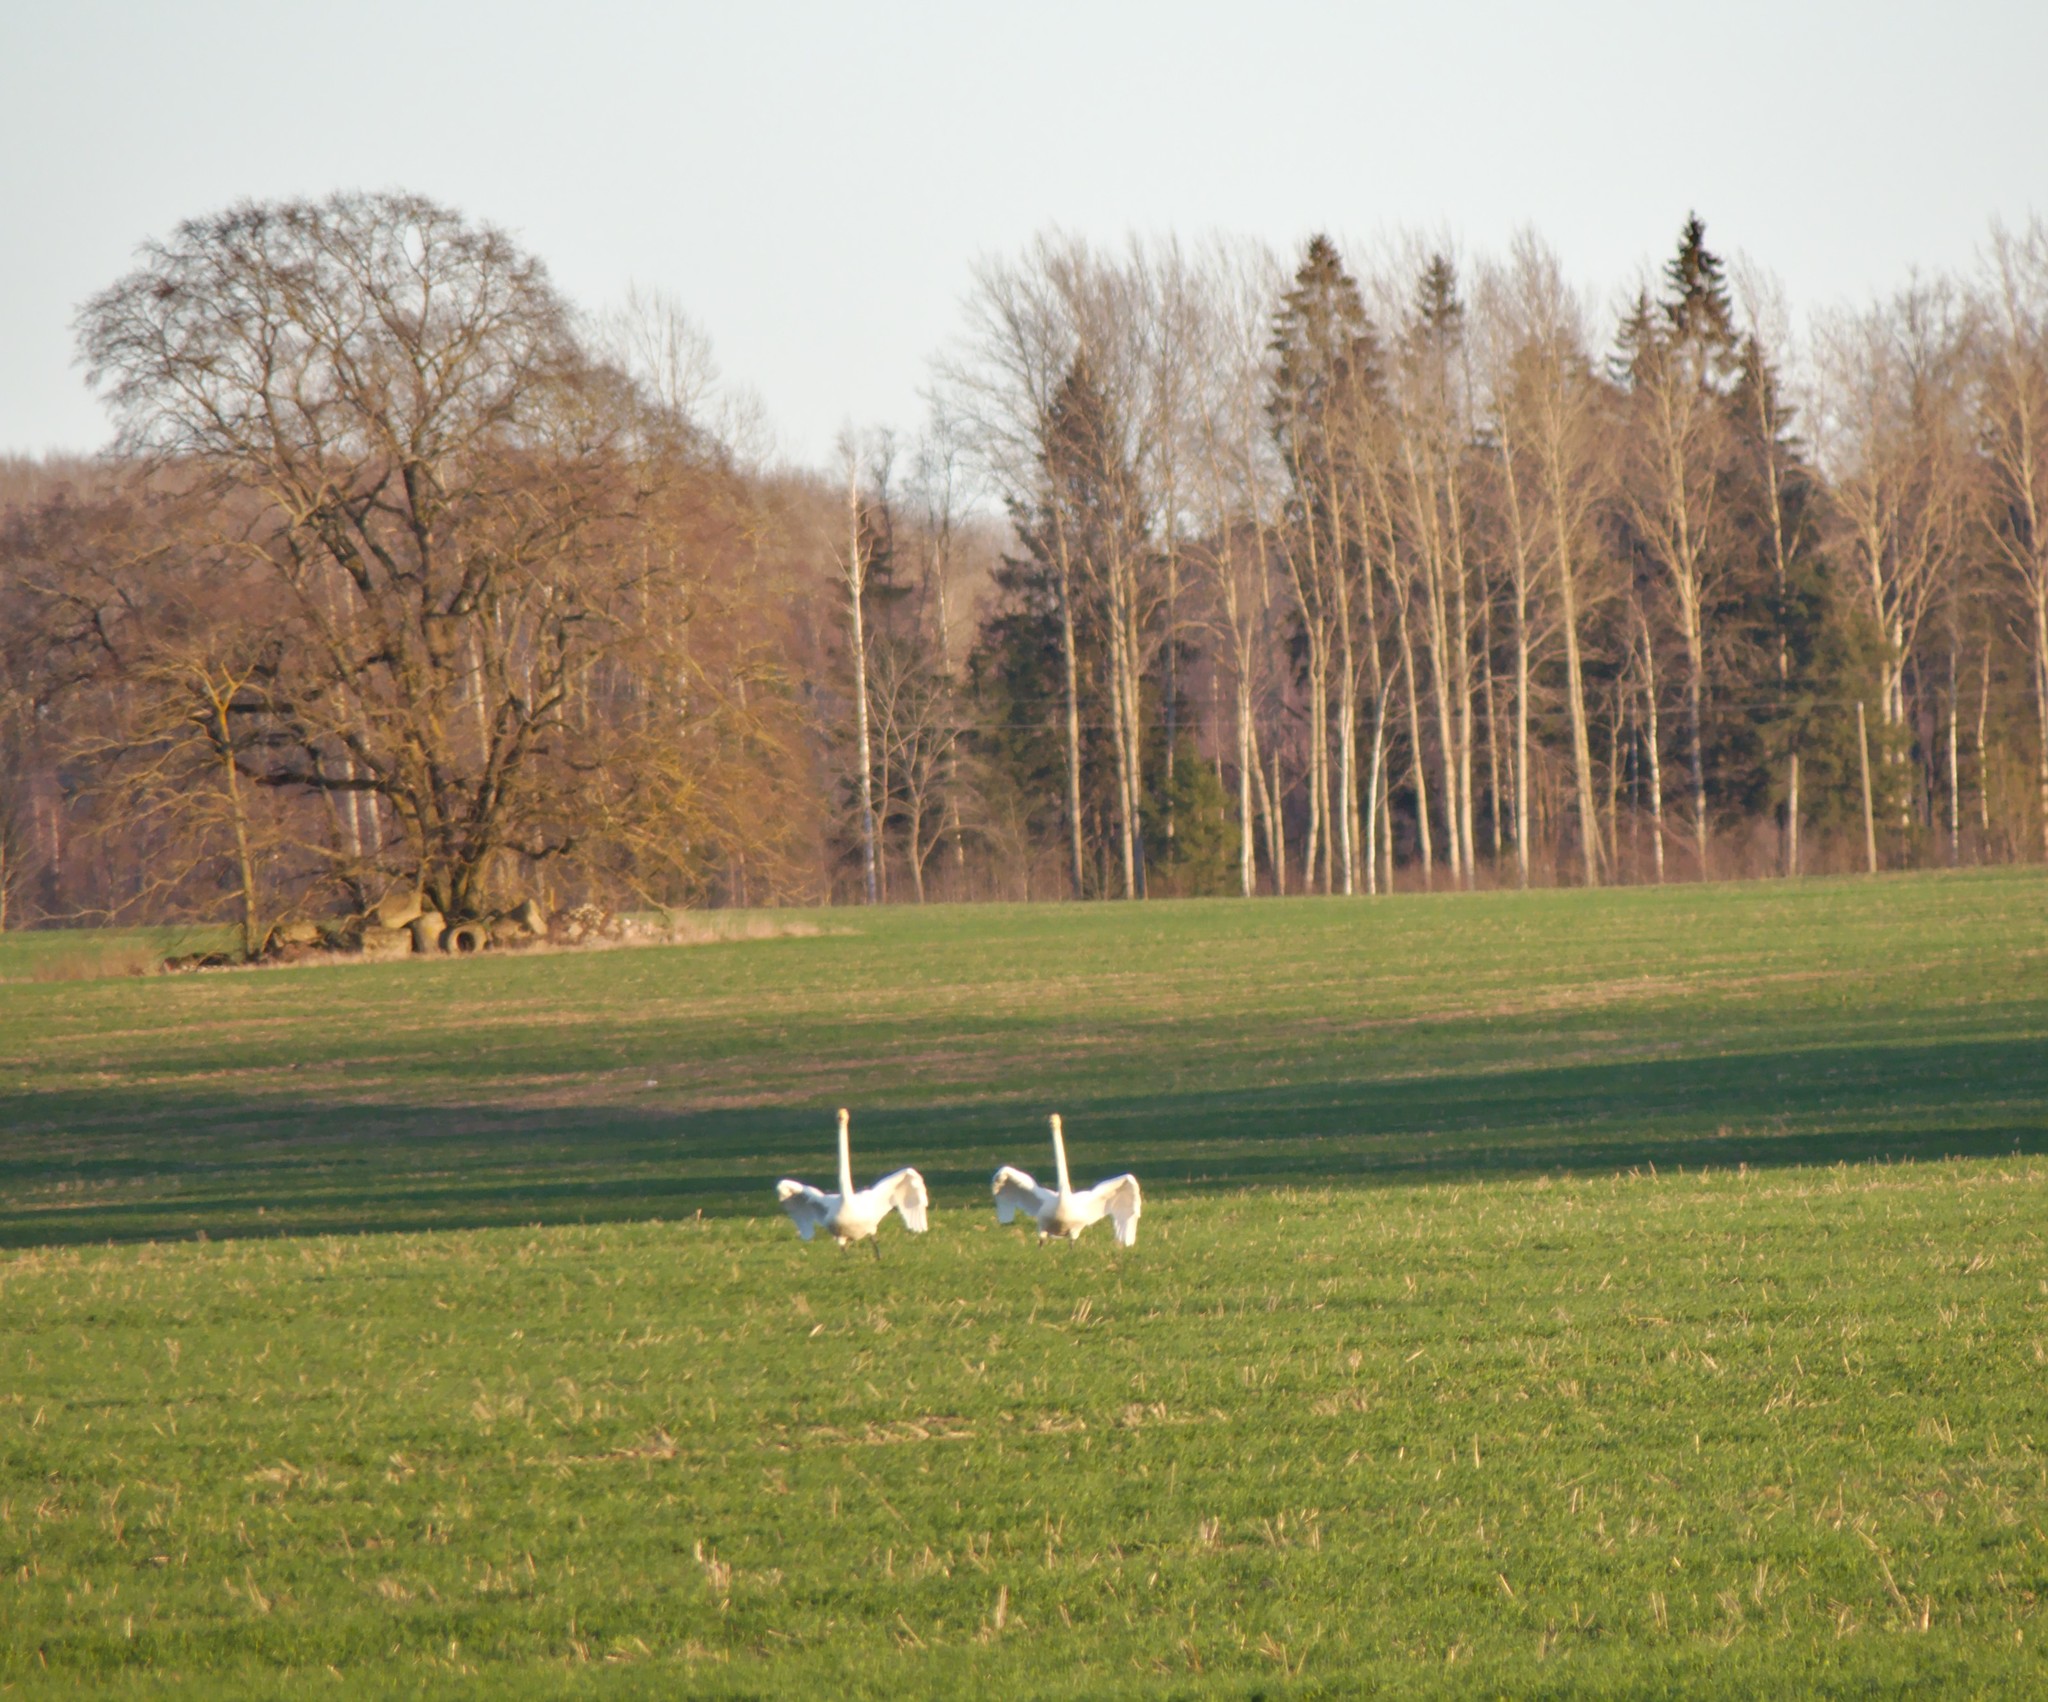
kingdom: Animalia
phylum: Chordata
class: Aves
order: Anseriformes
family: Anatidae
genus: Cygnus
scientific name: Cygnus cygnus
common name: Whooper swan
